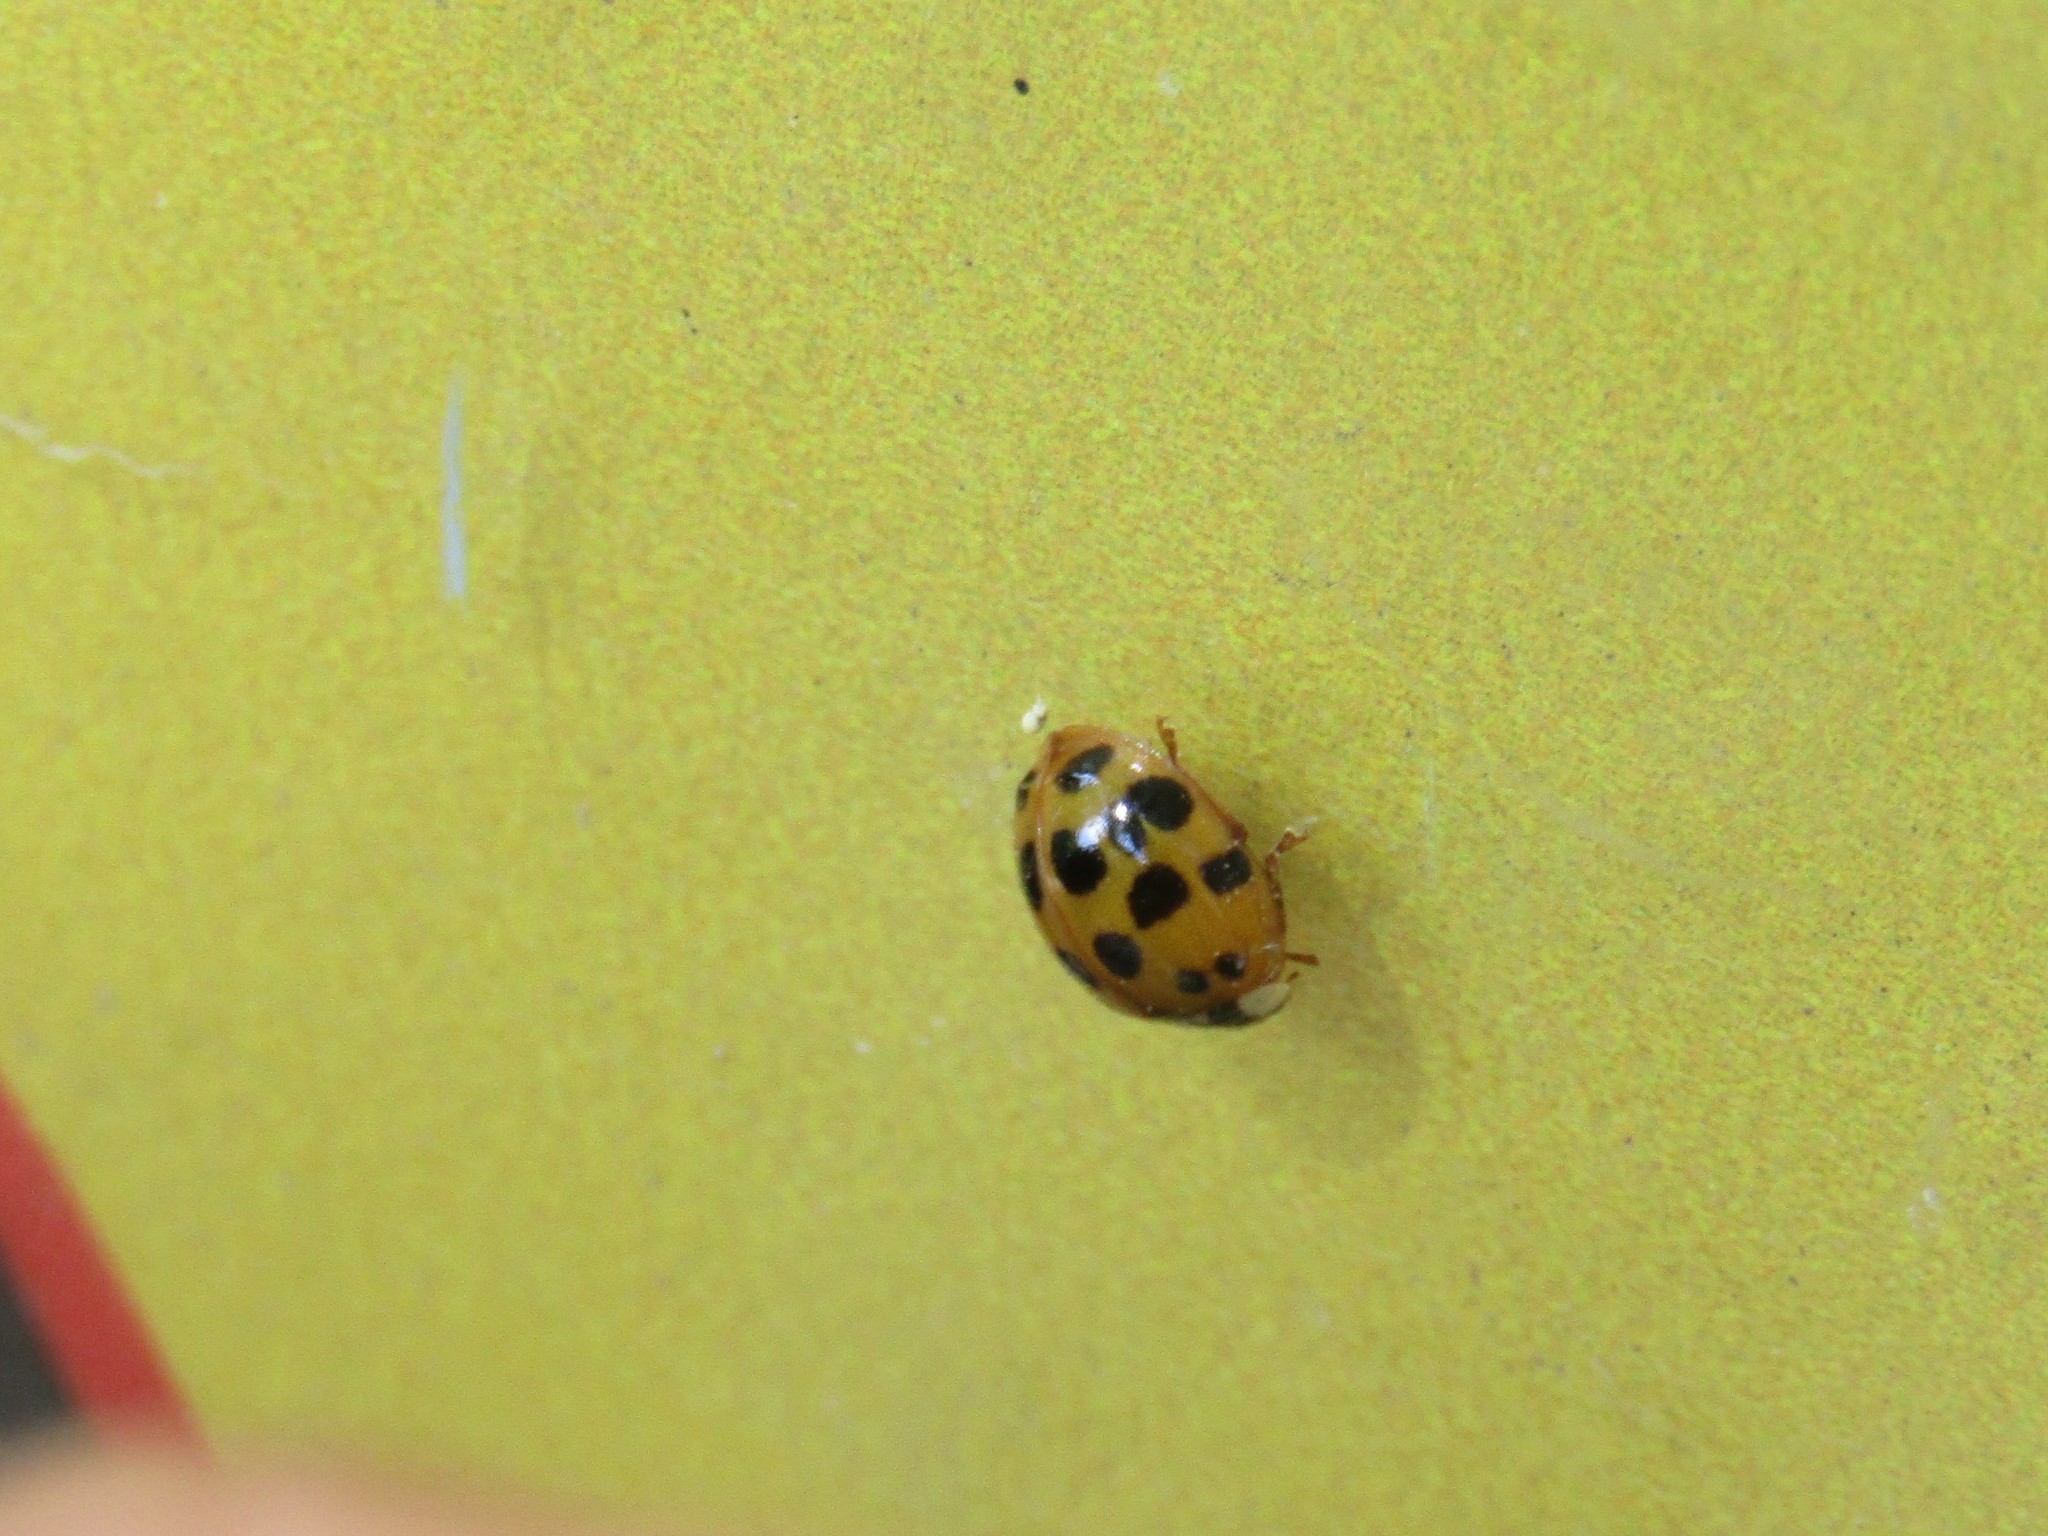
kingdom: Animalia
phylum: Arthropoda
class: Insecta
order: Coleoptera
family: Coccinellidae
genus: Harmonia
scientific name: Harmonia axyridis
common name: Harlequin ladybird
